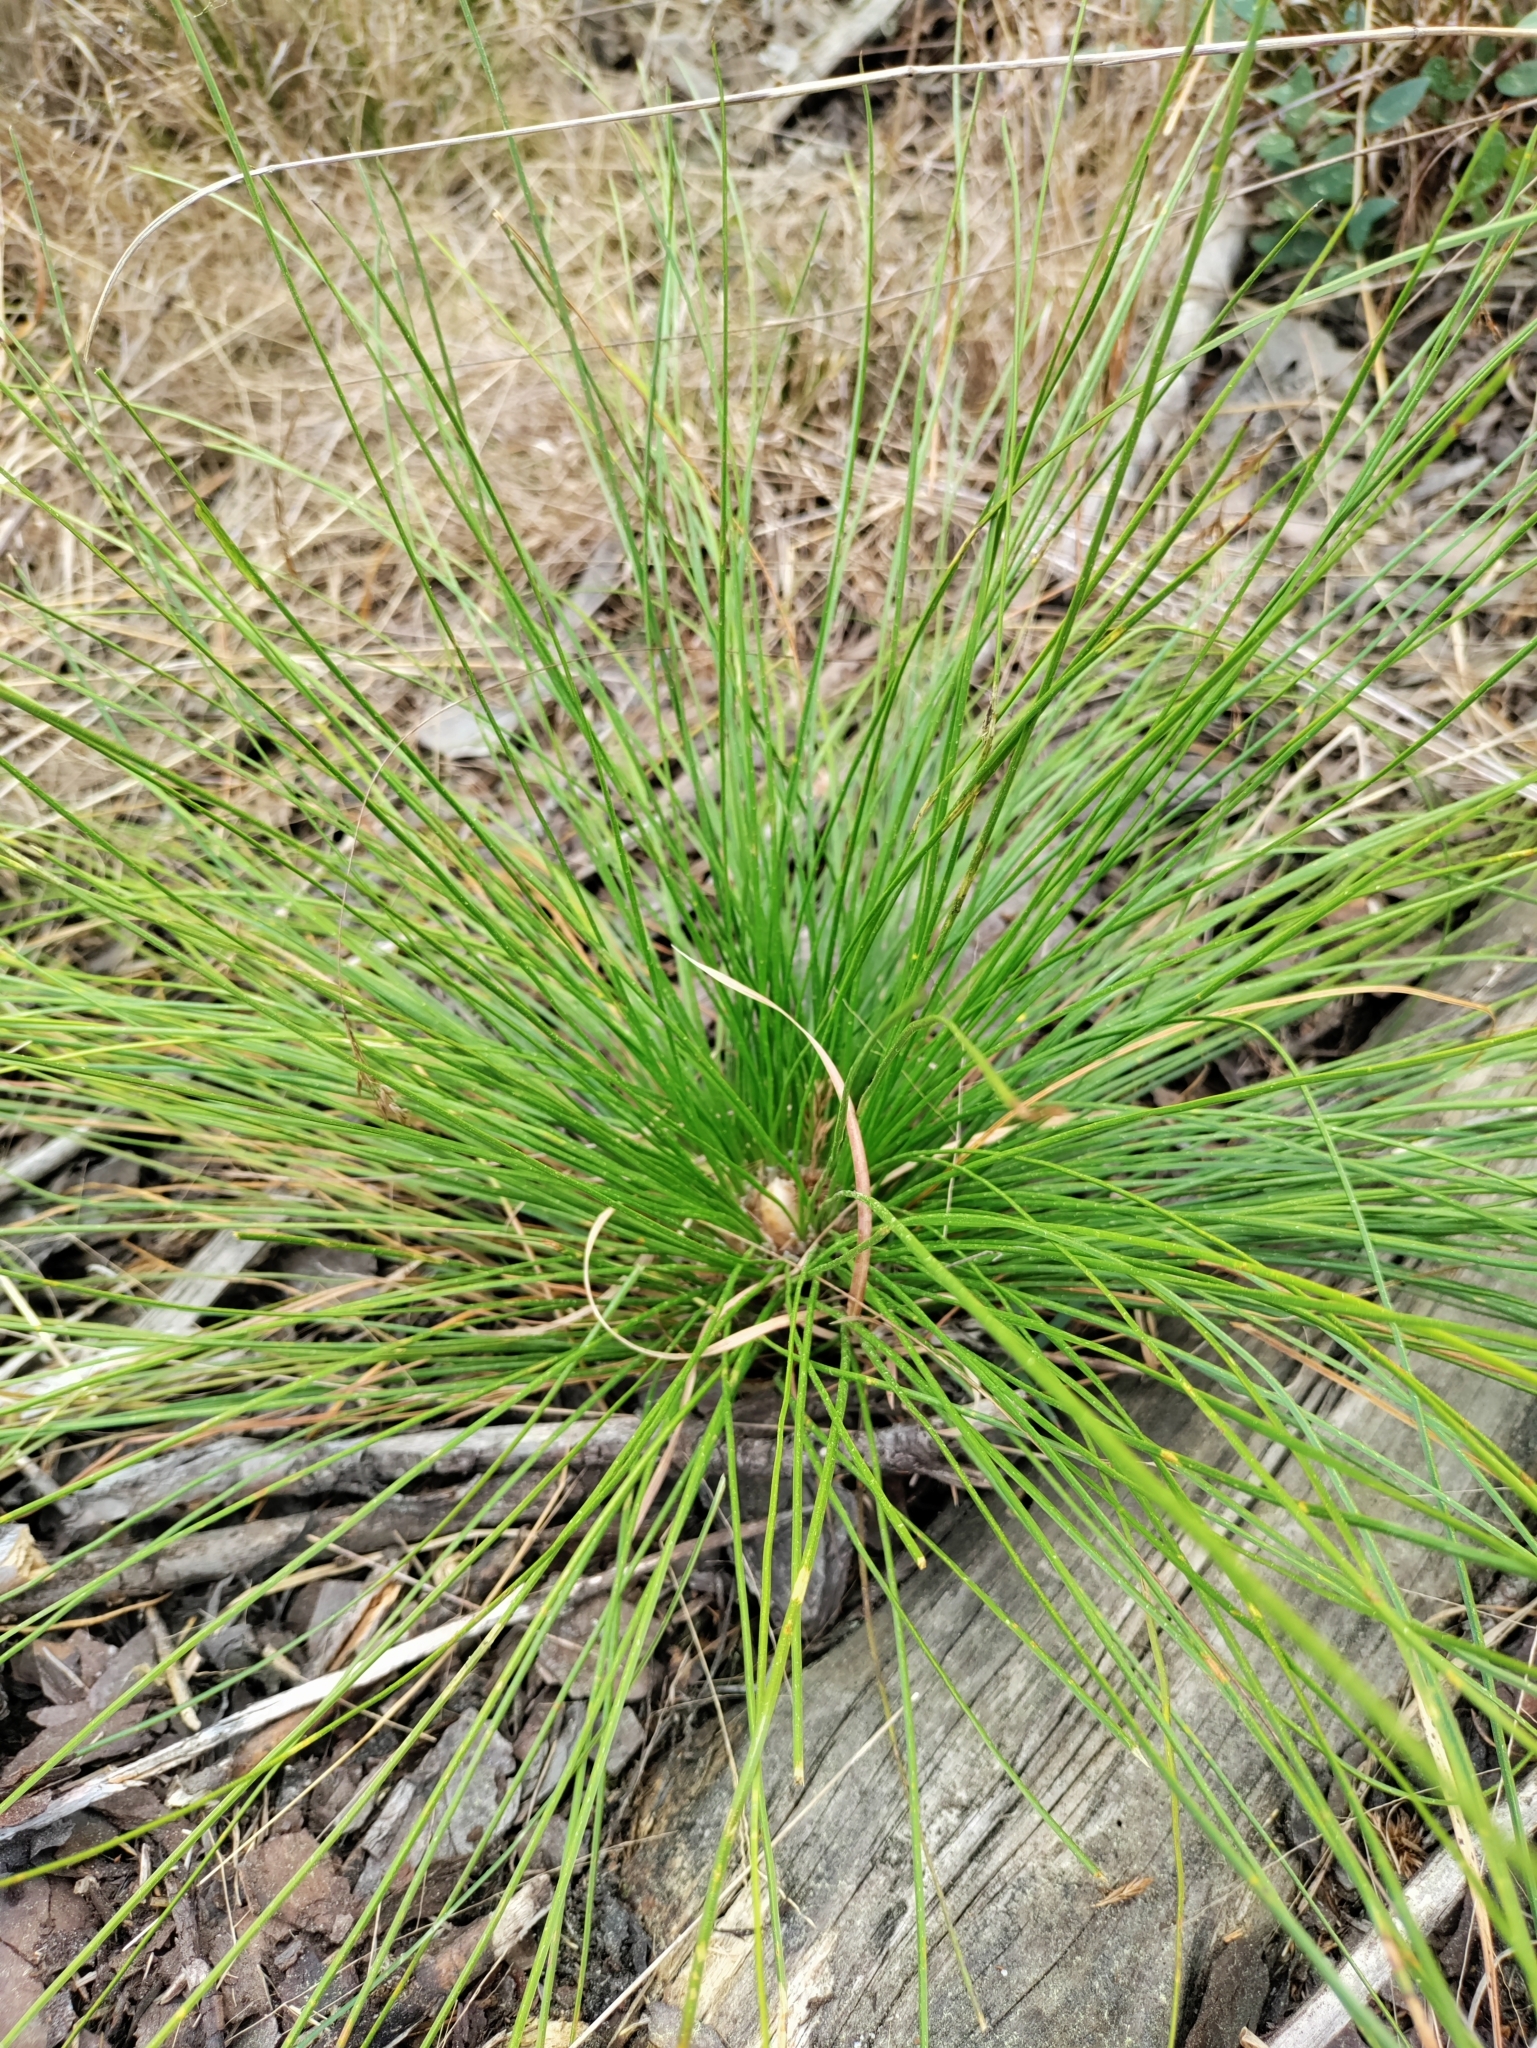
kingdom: Plantae
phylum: Tracheophyta
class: Pinopsida
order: Pinales
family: Pinaceae
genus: Pinus
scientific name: Pinus palustris
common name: Longleaf pine
